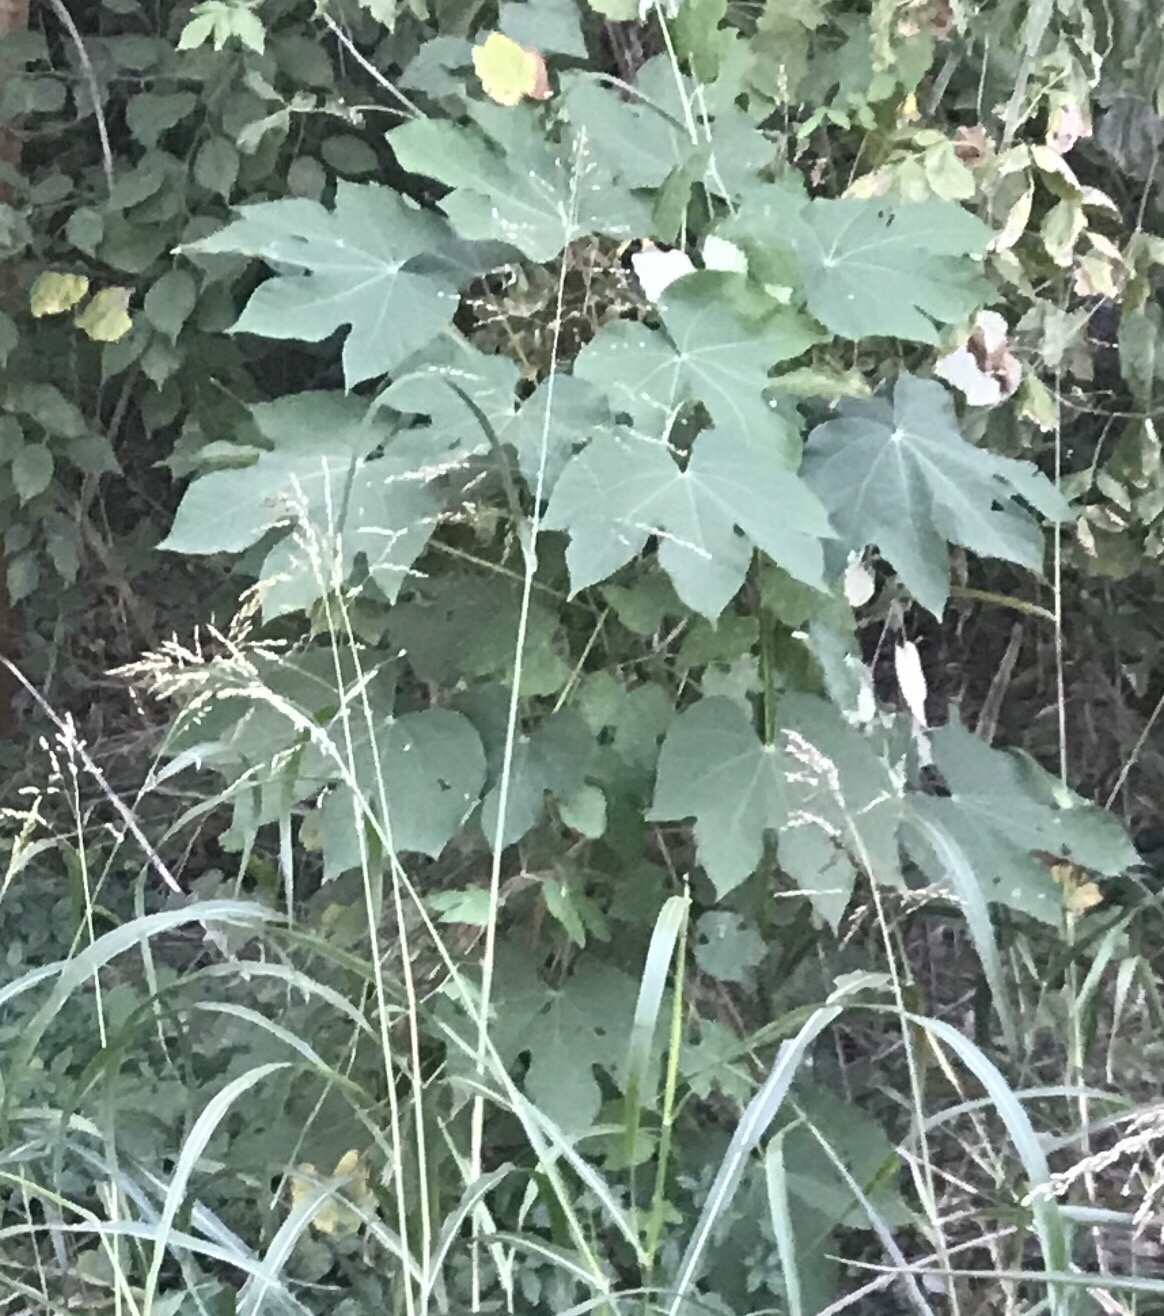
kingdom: Plantae
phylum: Tracheophyta
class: Magnoliopsida
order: Malvales
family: Malvaceae
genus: Firmiana
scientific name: Firmiana simplex
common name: Chinese parasoltree
